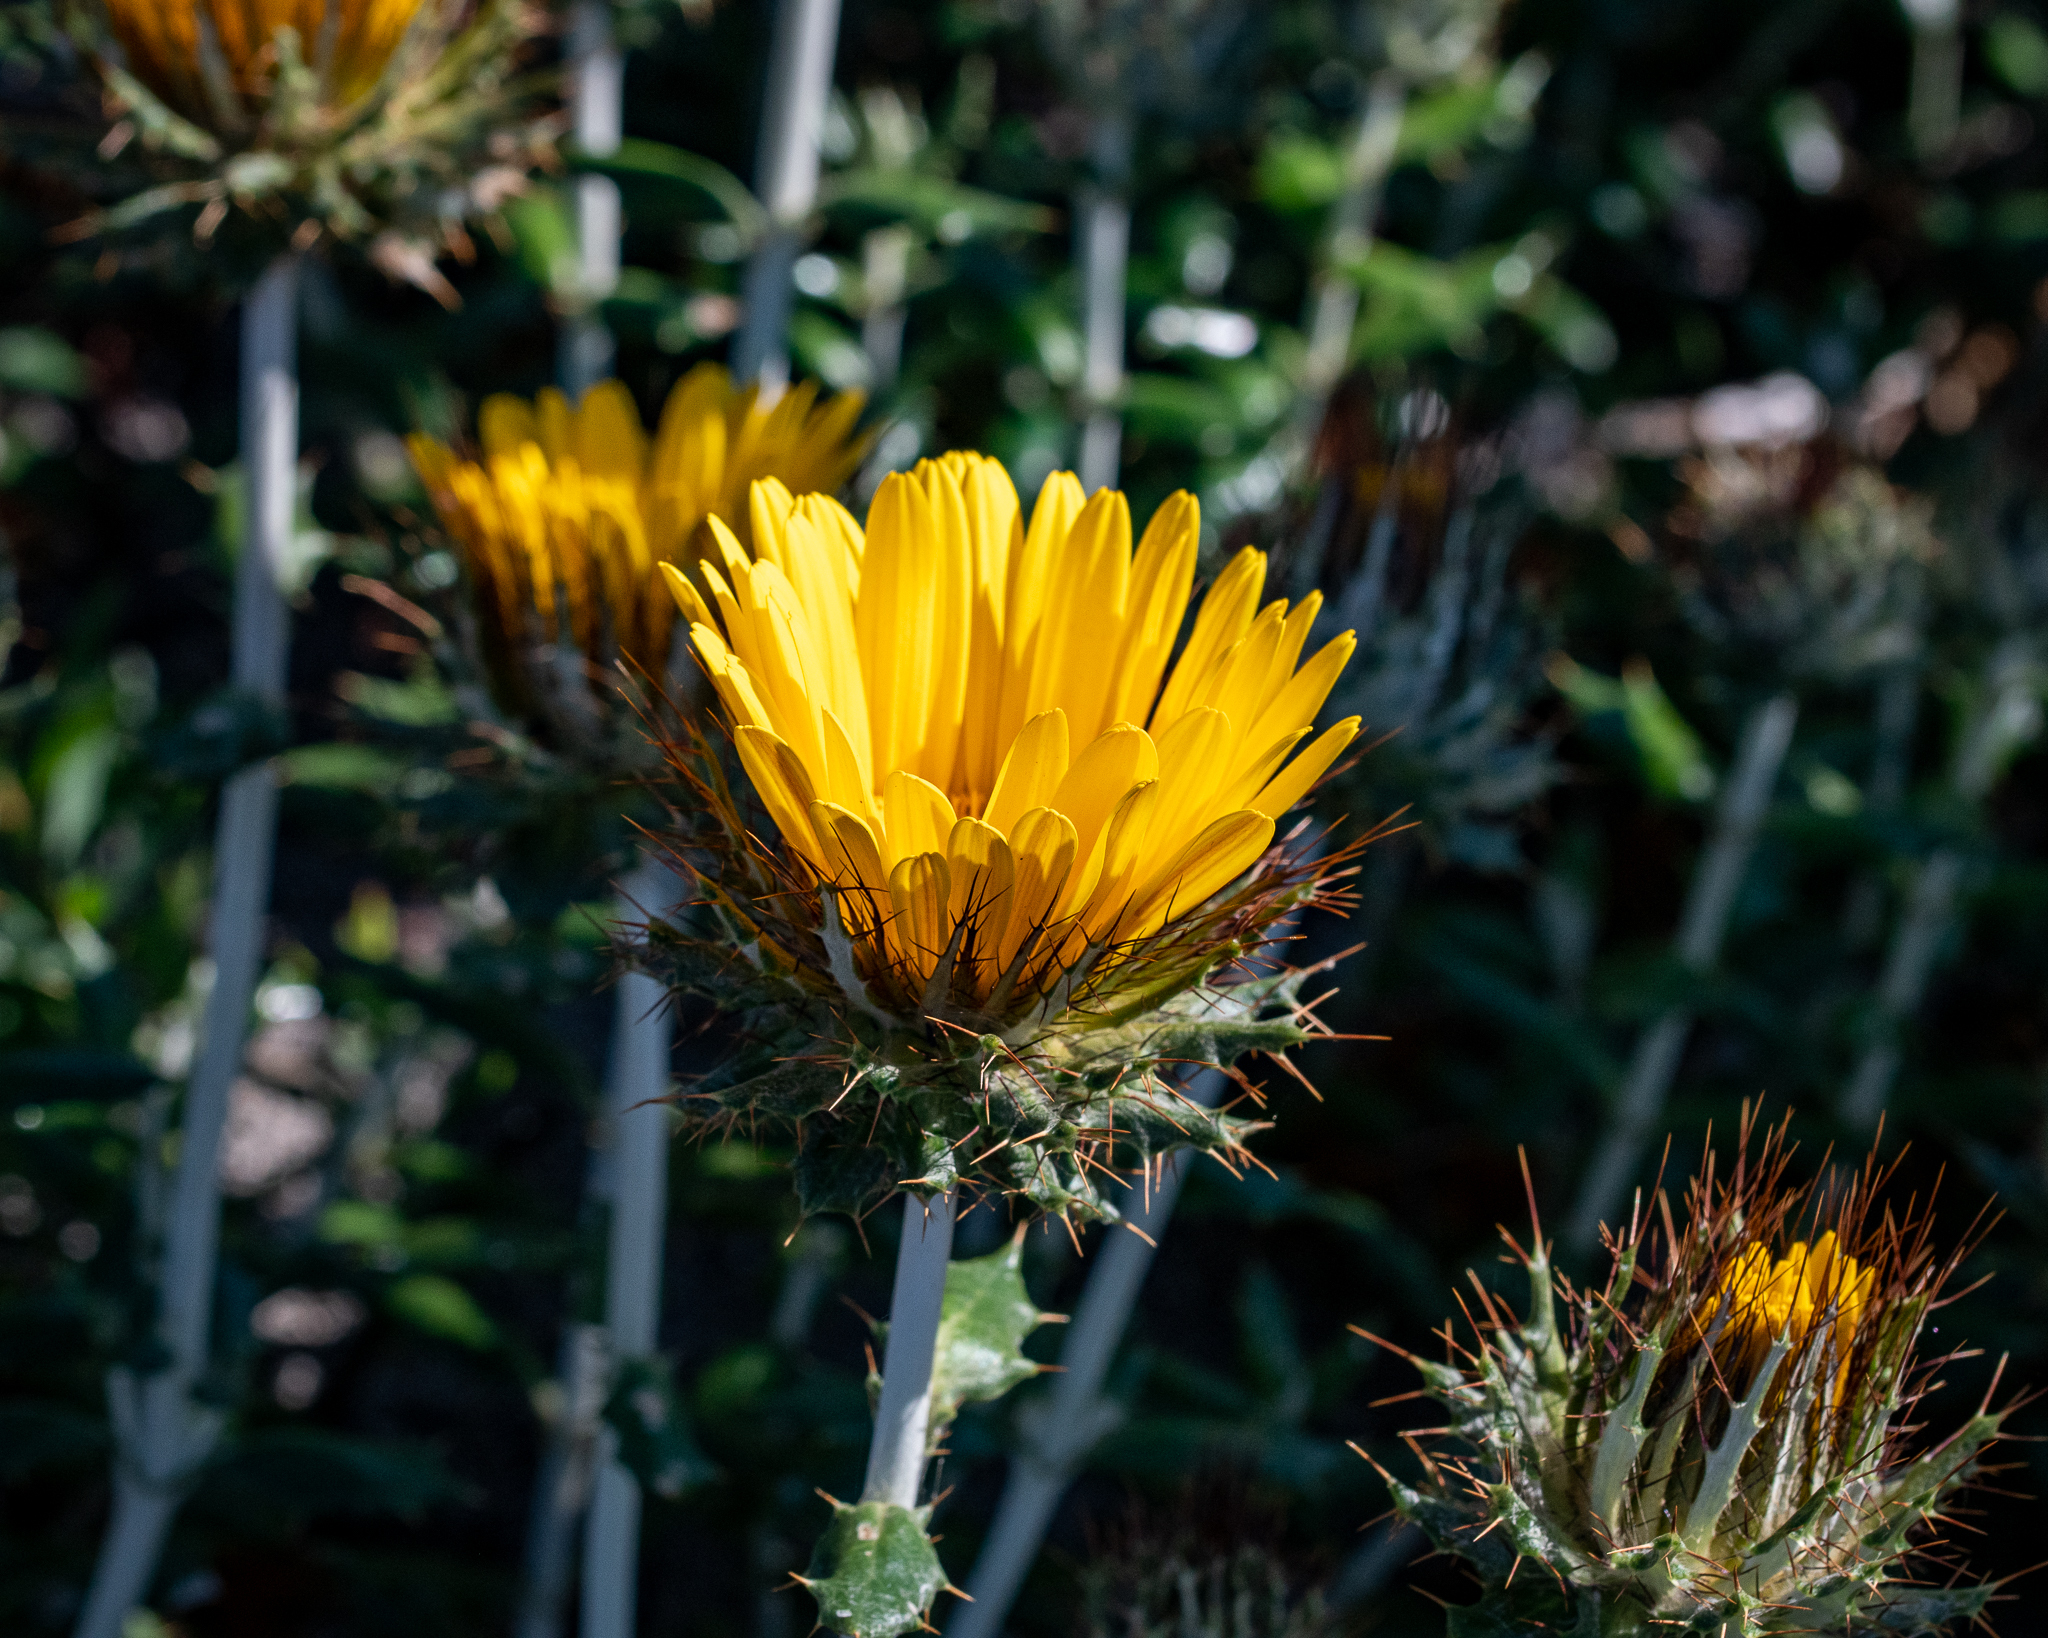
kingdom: Plantae
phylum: Tracheophyta
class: Magnoliopsida
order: Asterales
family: Asteraceae
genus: Berkheya
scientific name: Berkheya barbata
